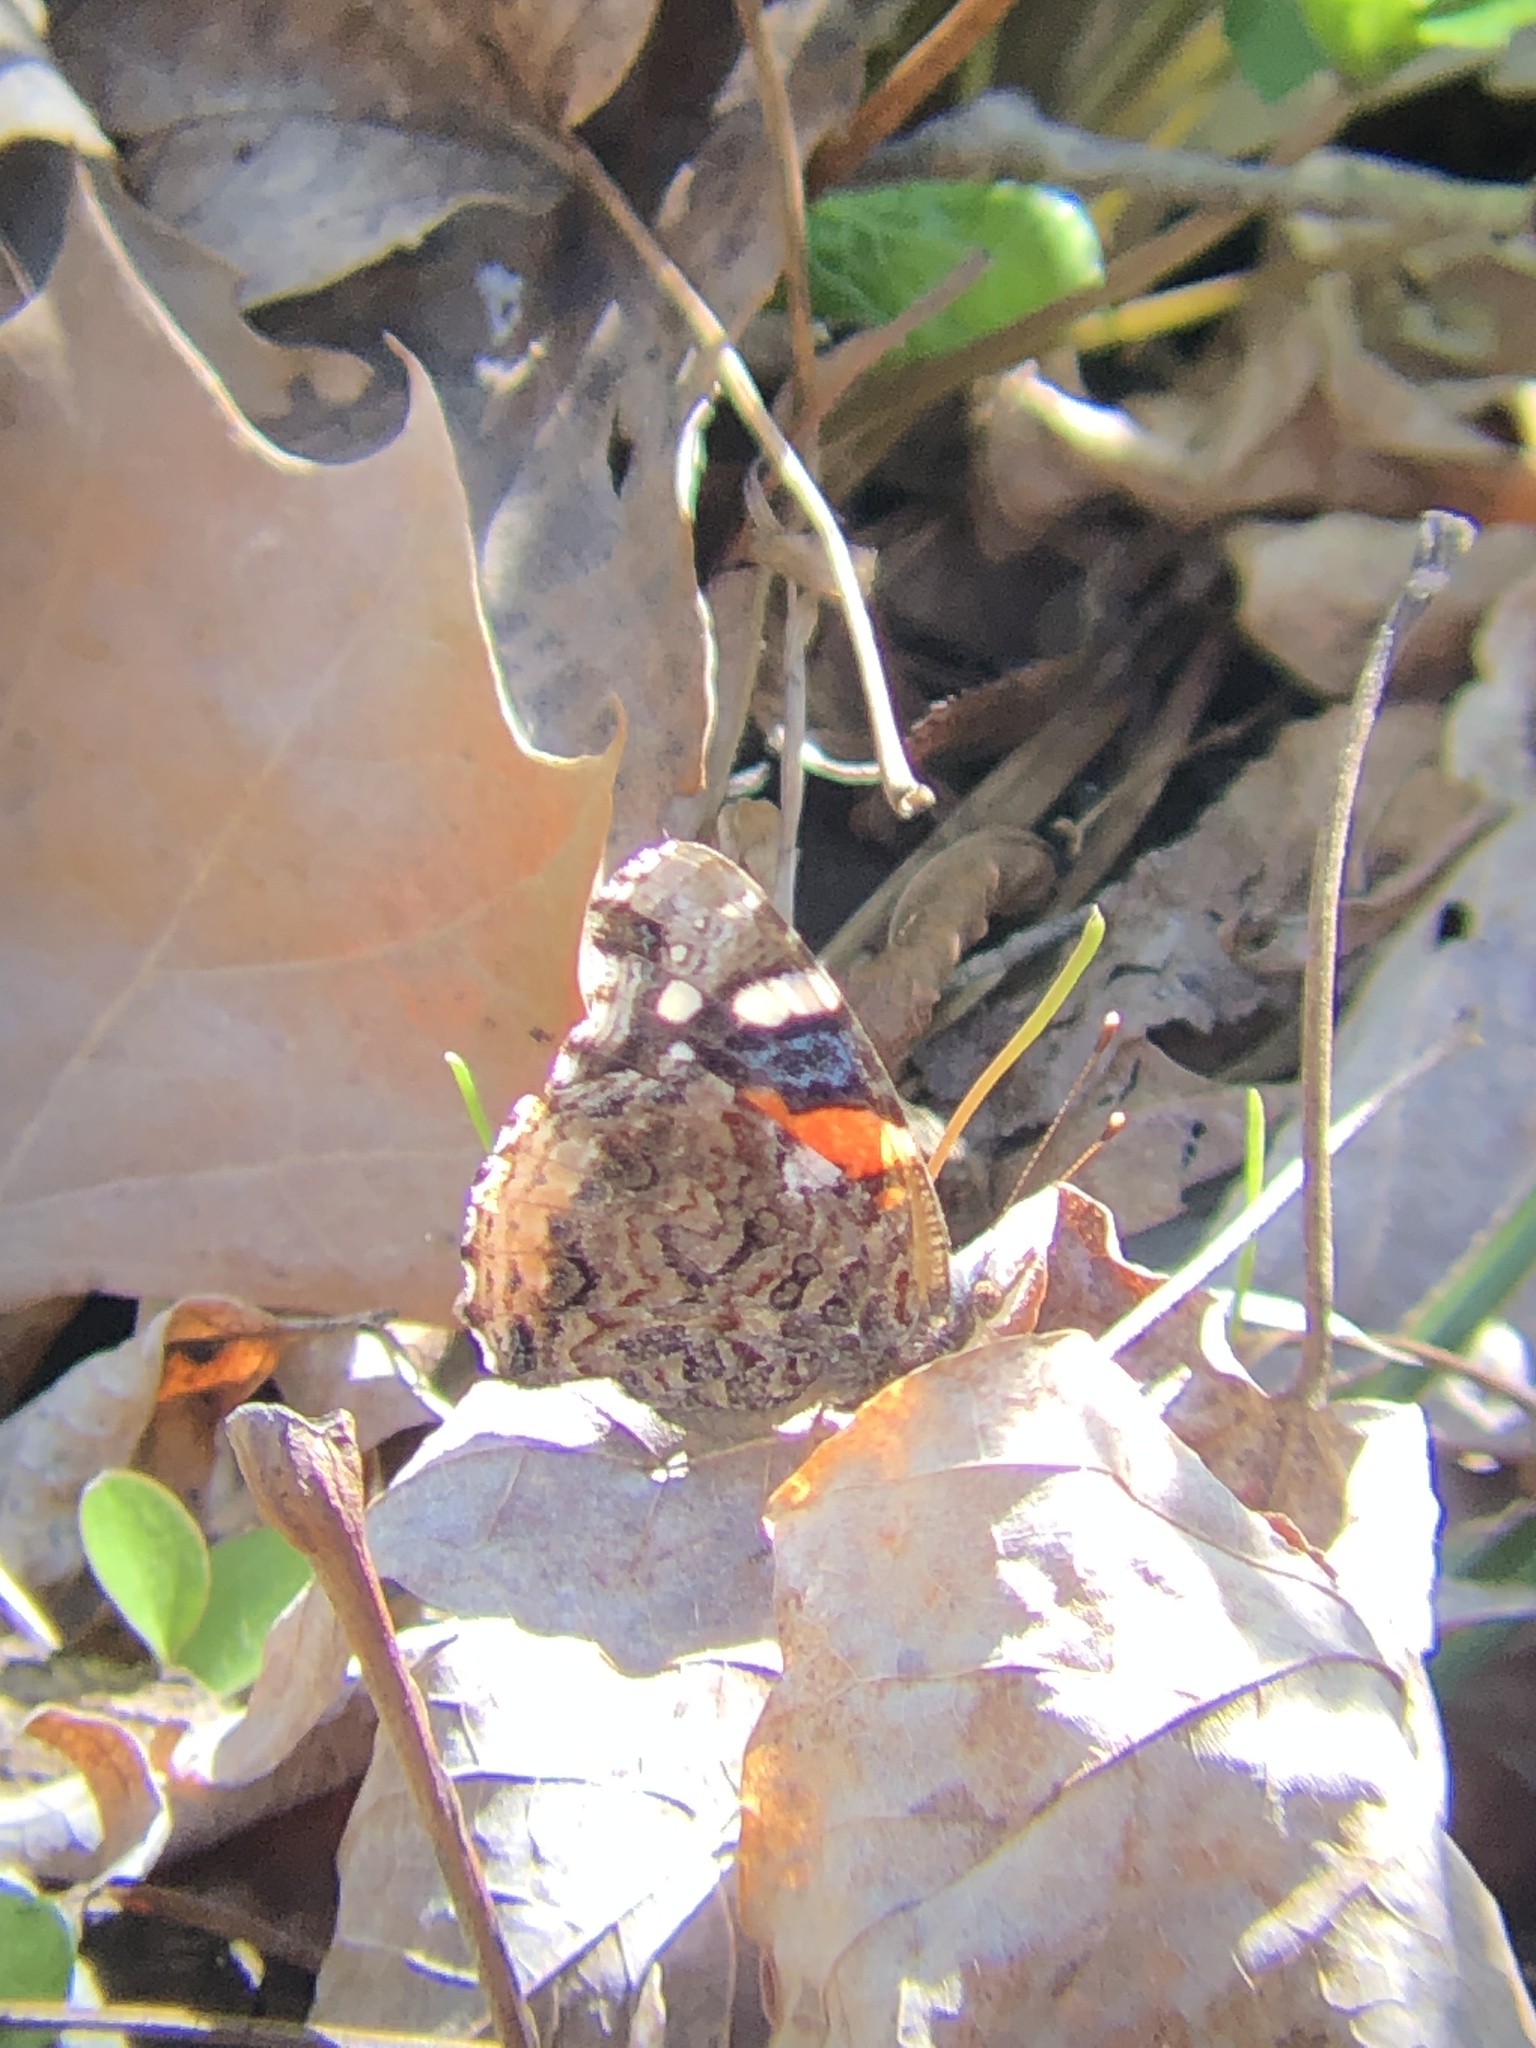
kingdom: Animalia
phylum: Arthropoda
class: Insecta
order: Lepidoptera
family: Nymphalidae
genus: Vanessa
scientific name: Vanessa atalanta
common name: Red admiral
